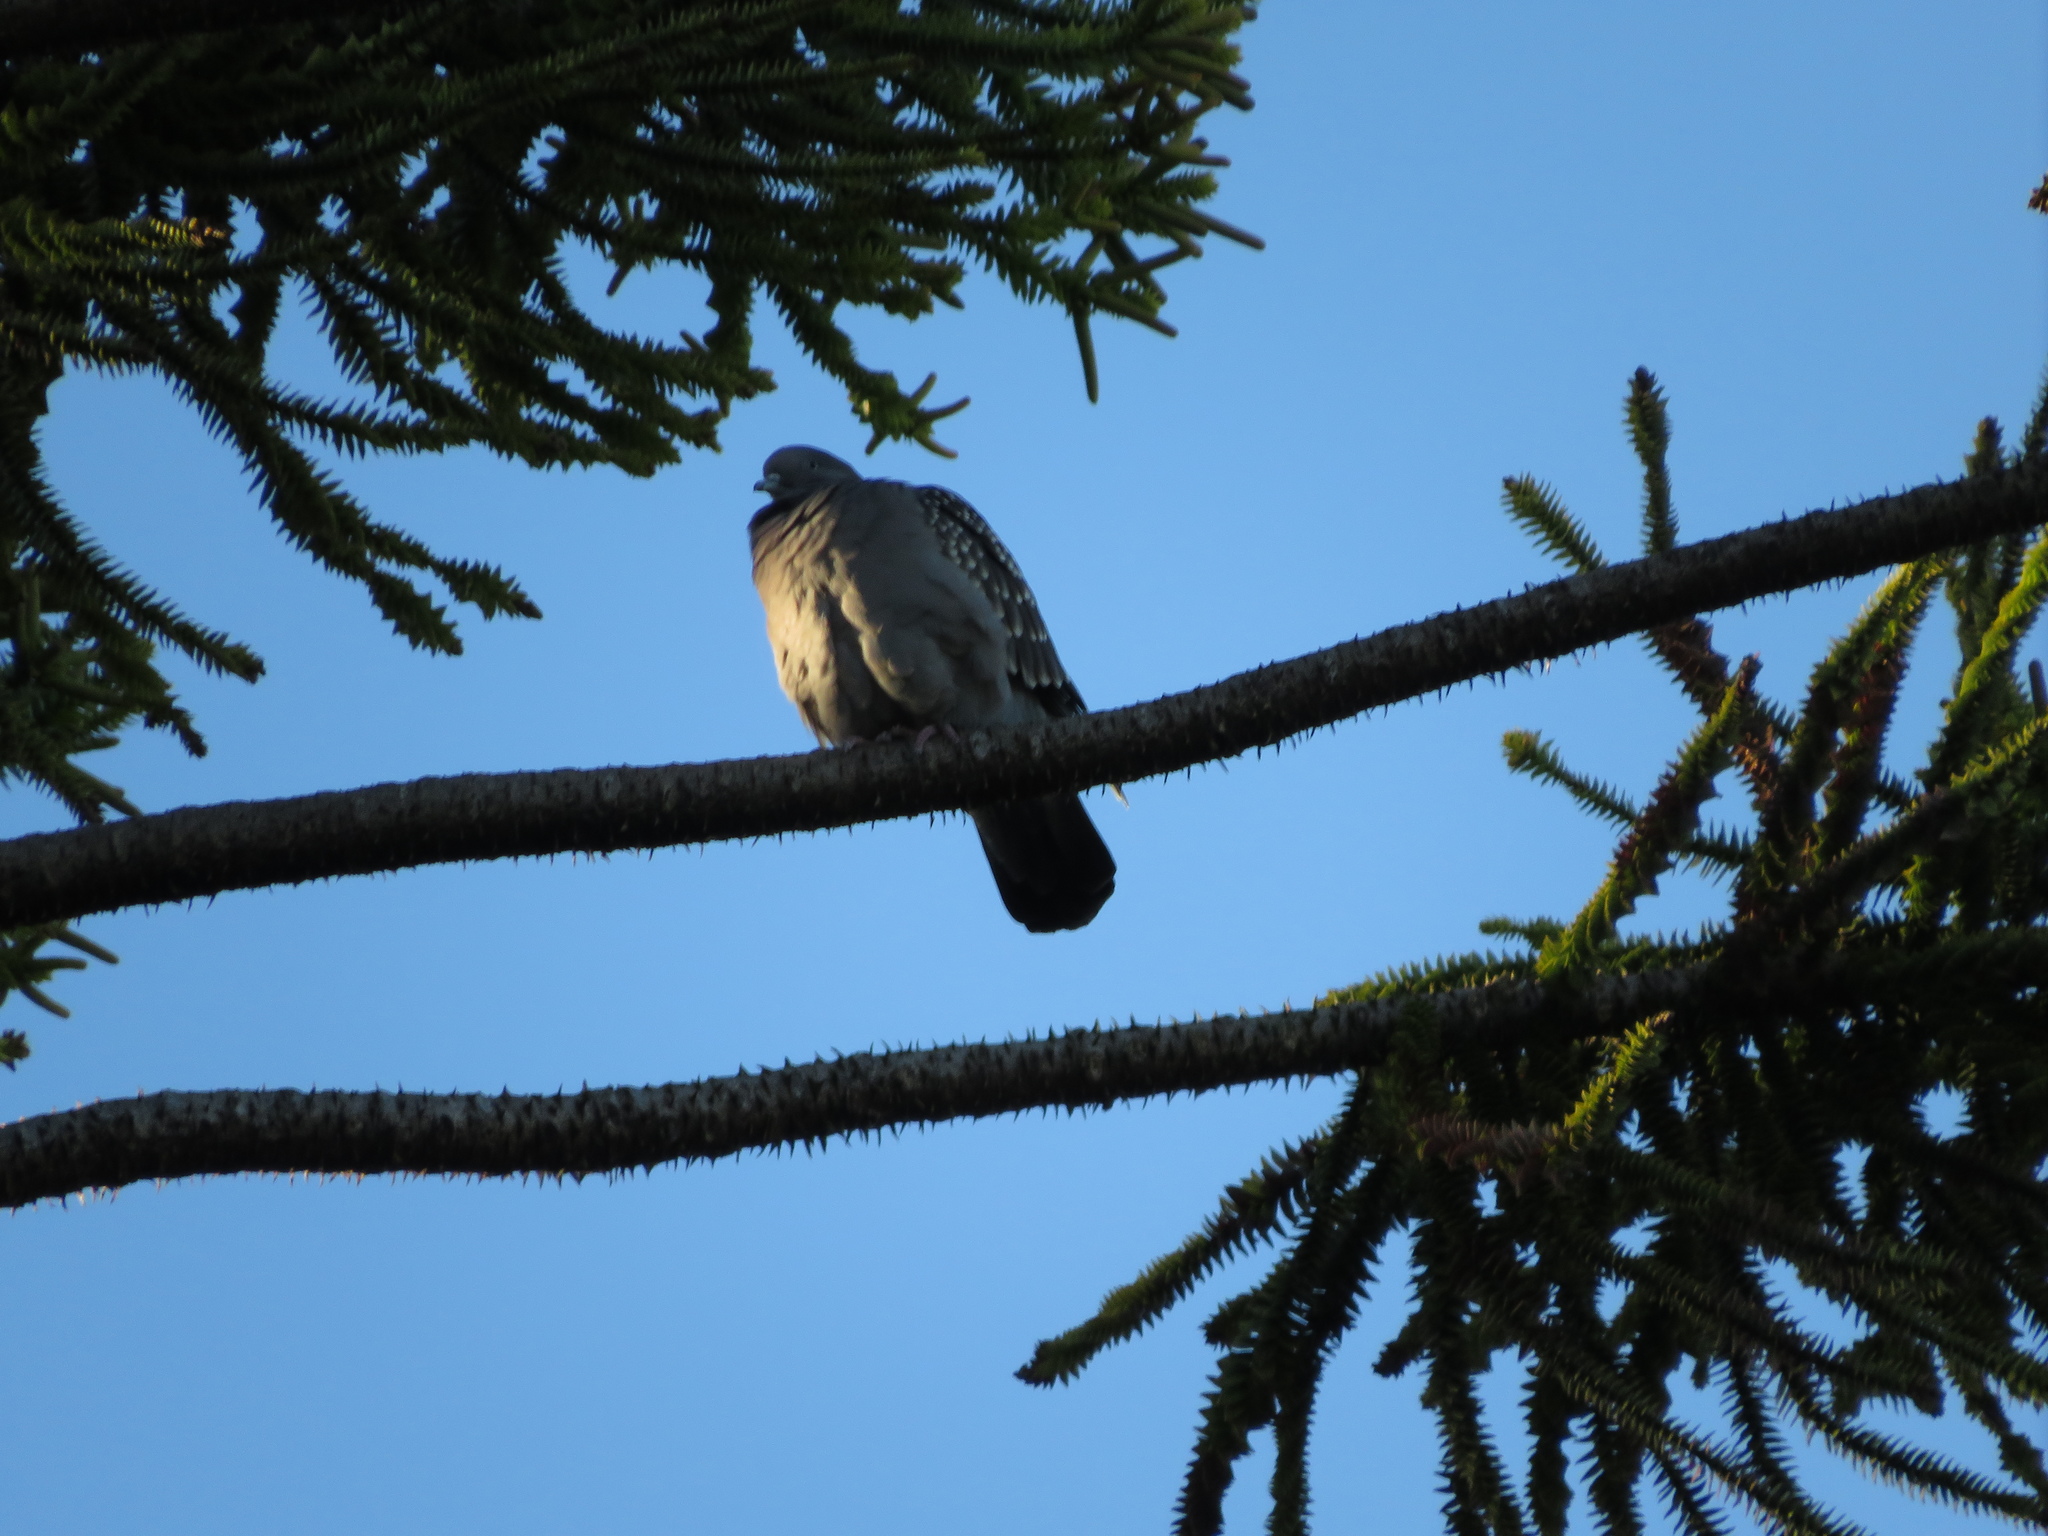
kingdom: Animalia
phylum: Chordata
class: Aves
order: Columbiformes
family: Columbidae
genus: Patagioenas
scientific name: Patagioenas maculosa
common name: Spot-winged pigeon
